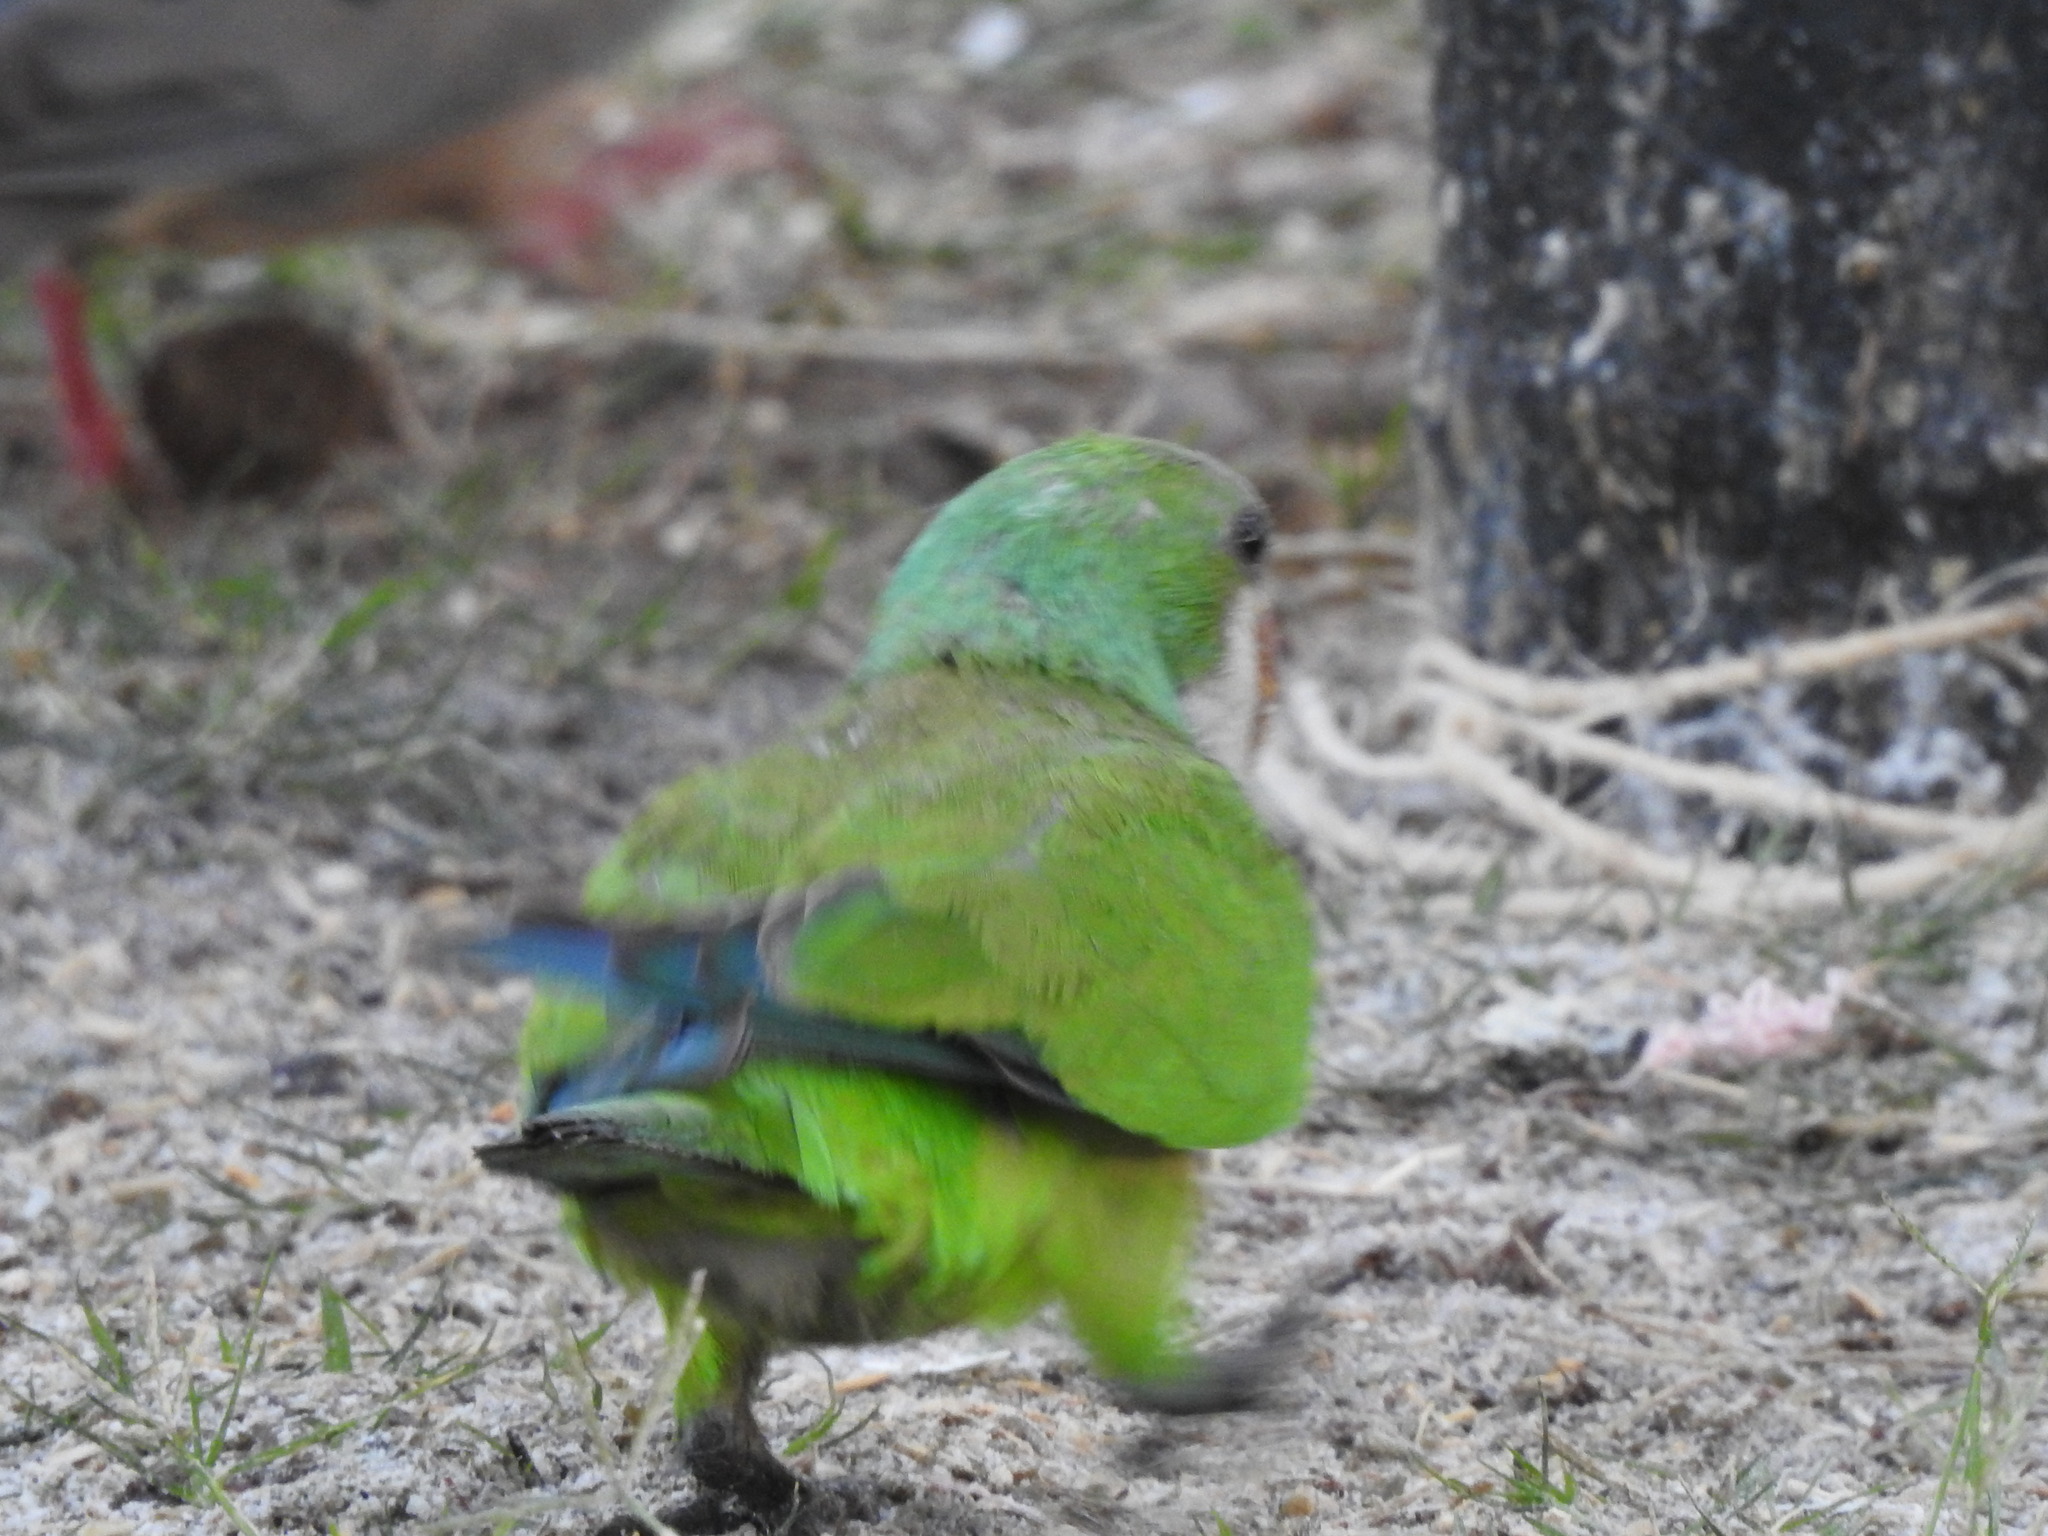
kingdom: Animalia
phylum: Chordata
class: Aves
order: Psittaciformes
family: Psittacidae
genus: Myiopsitta
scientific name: Myiopsitta monachus
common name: Monk parakeet
